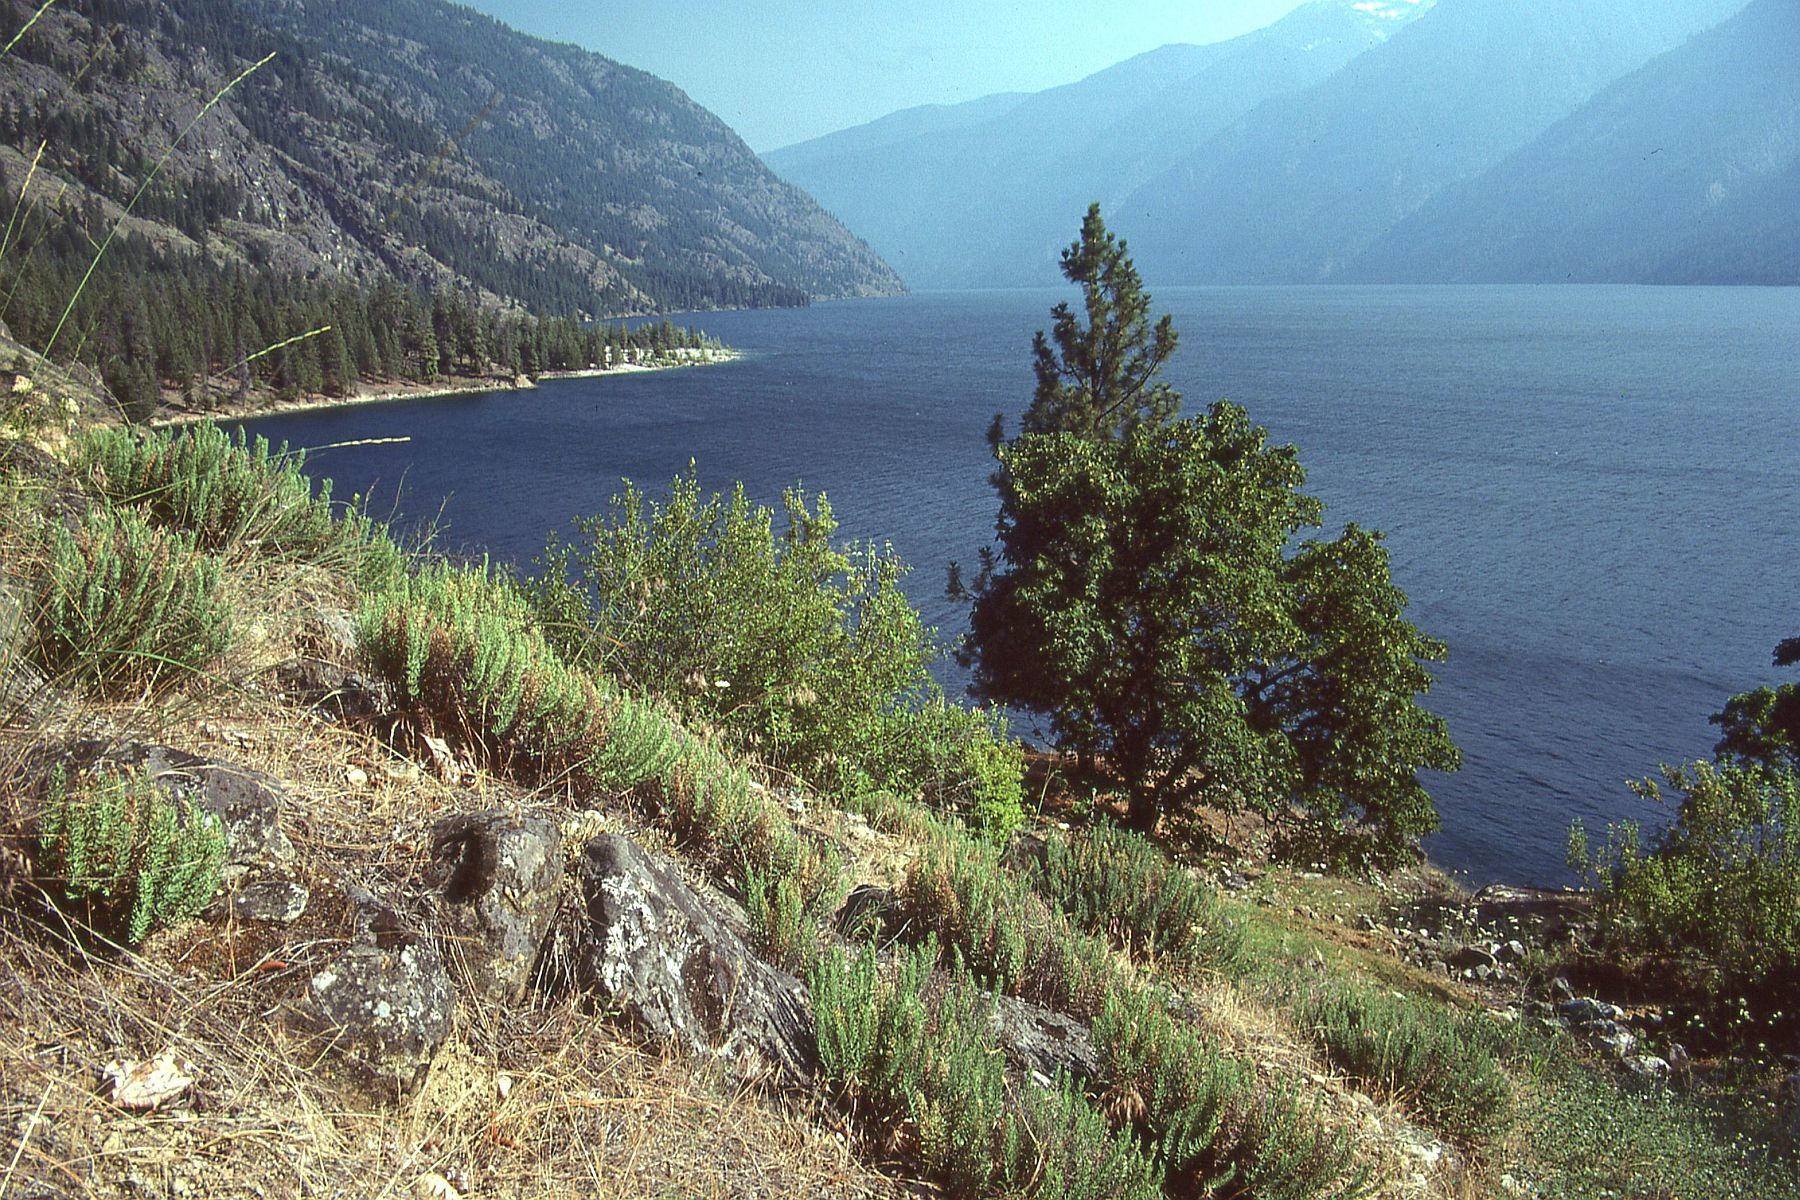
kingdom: Plantae
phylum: Tracheophyta
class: Polypodiopsida
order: Polypodiales
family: Pteridaceae
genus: Pellaea
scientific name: Pellaea brachyptera
